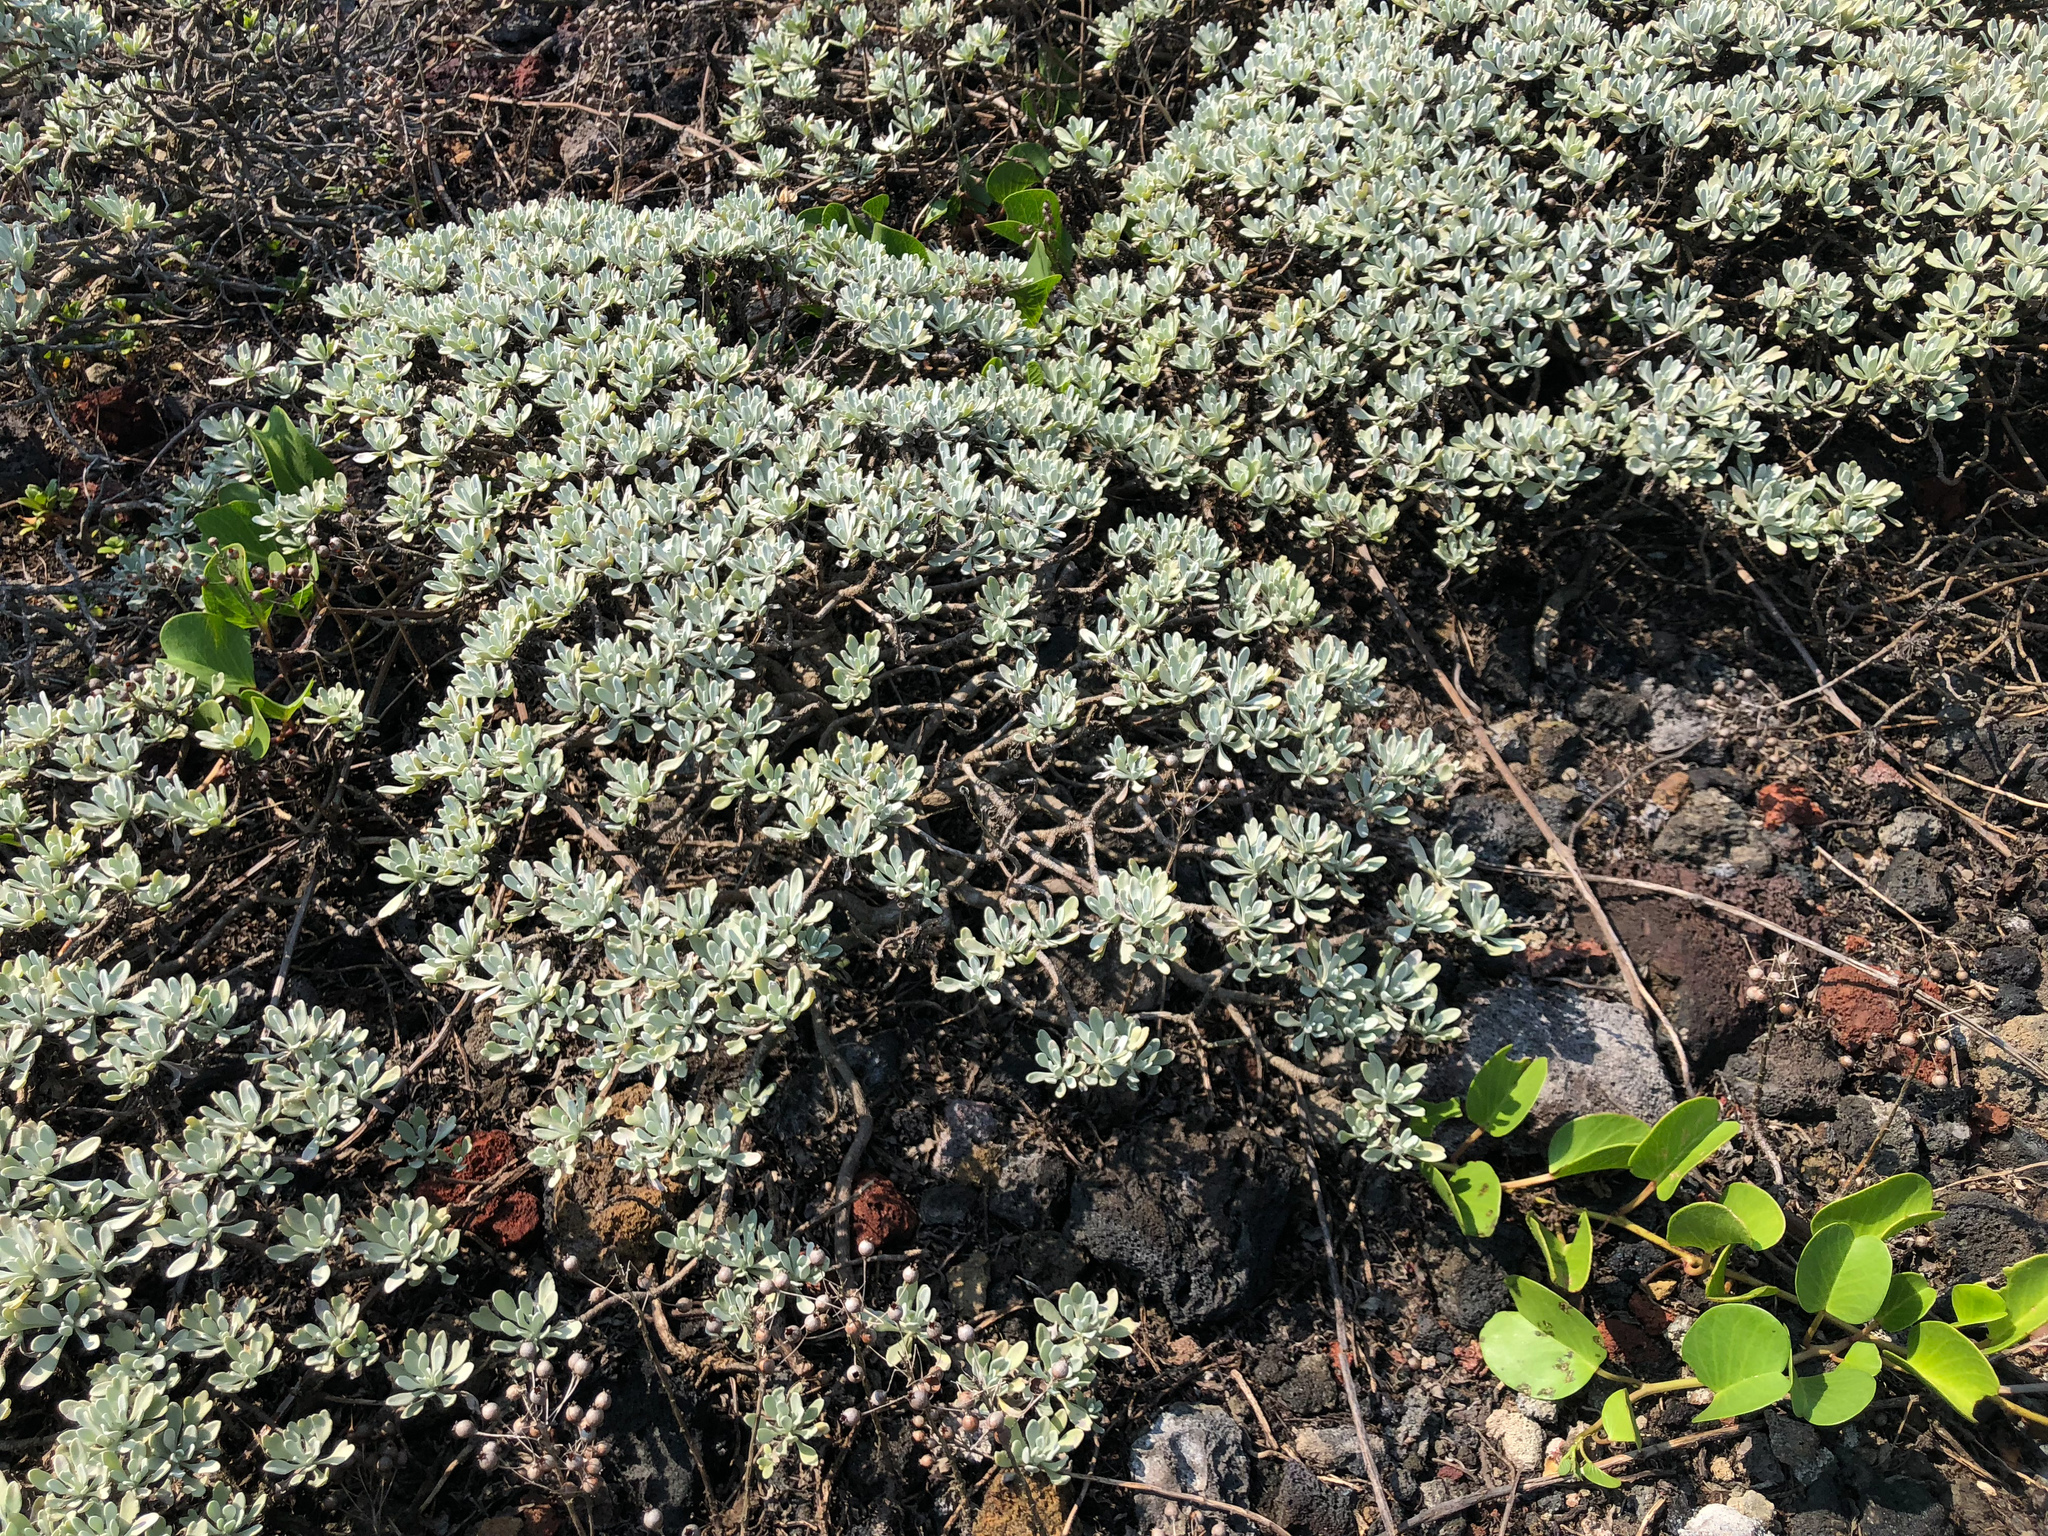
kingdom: Plantae
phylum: Tracheophyta
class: Magnoliopsida
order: Asterales
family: Asteraceae
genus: Crossostephium
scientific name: Crossostephium chinense
